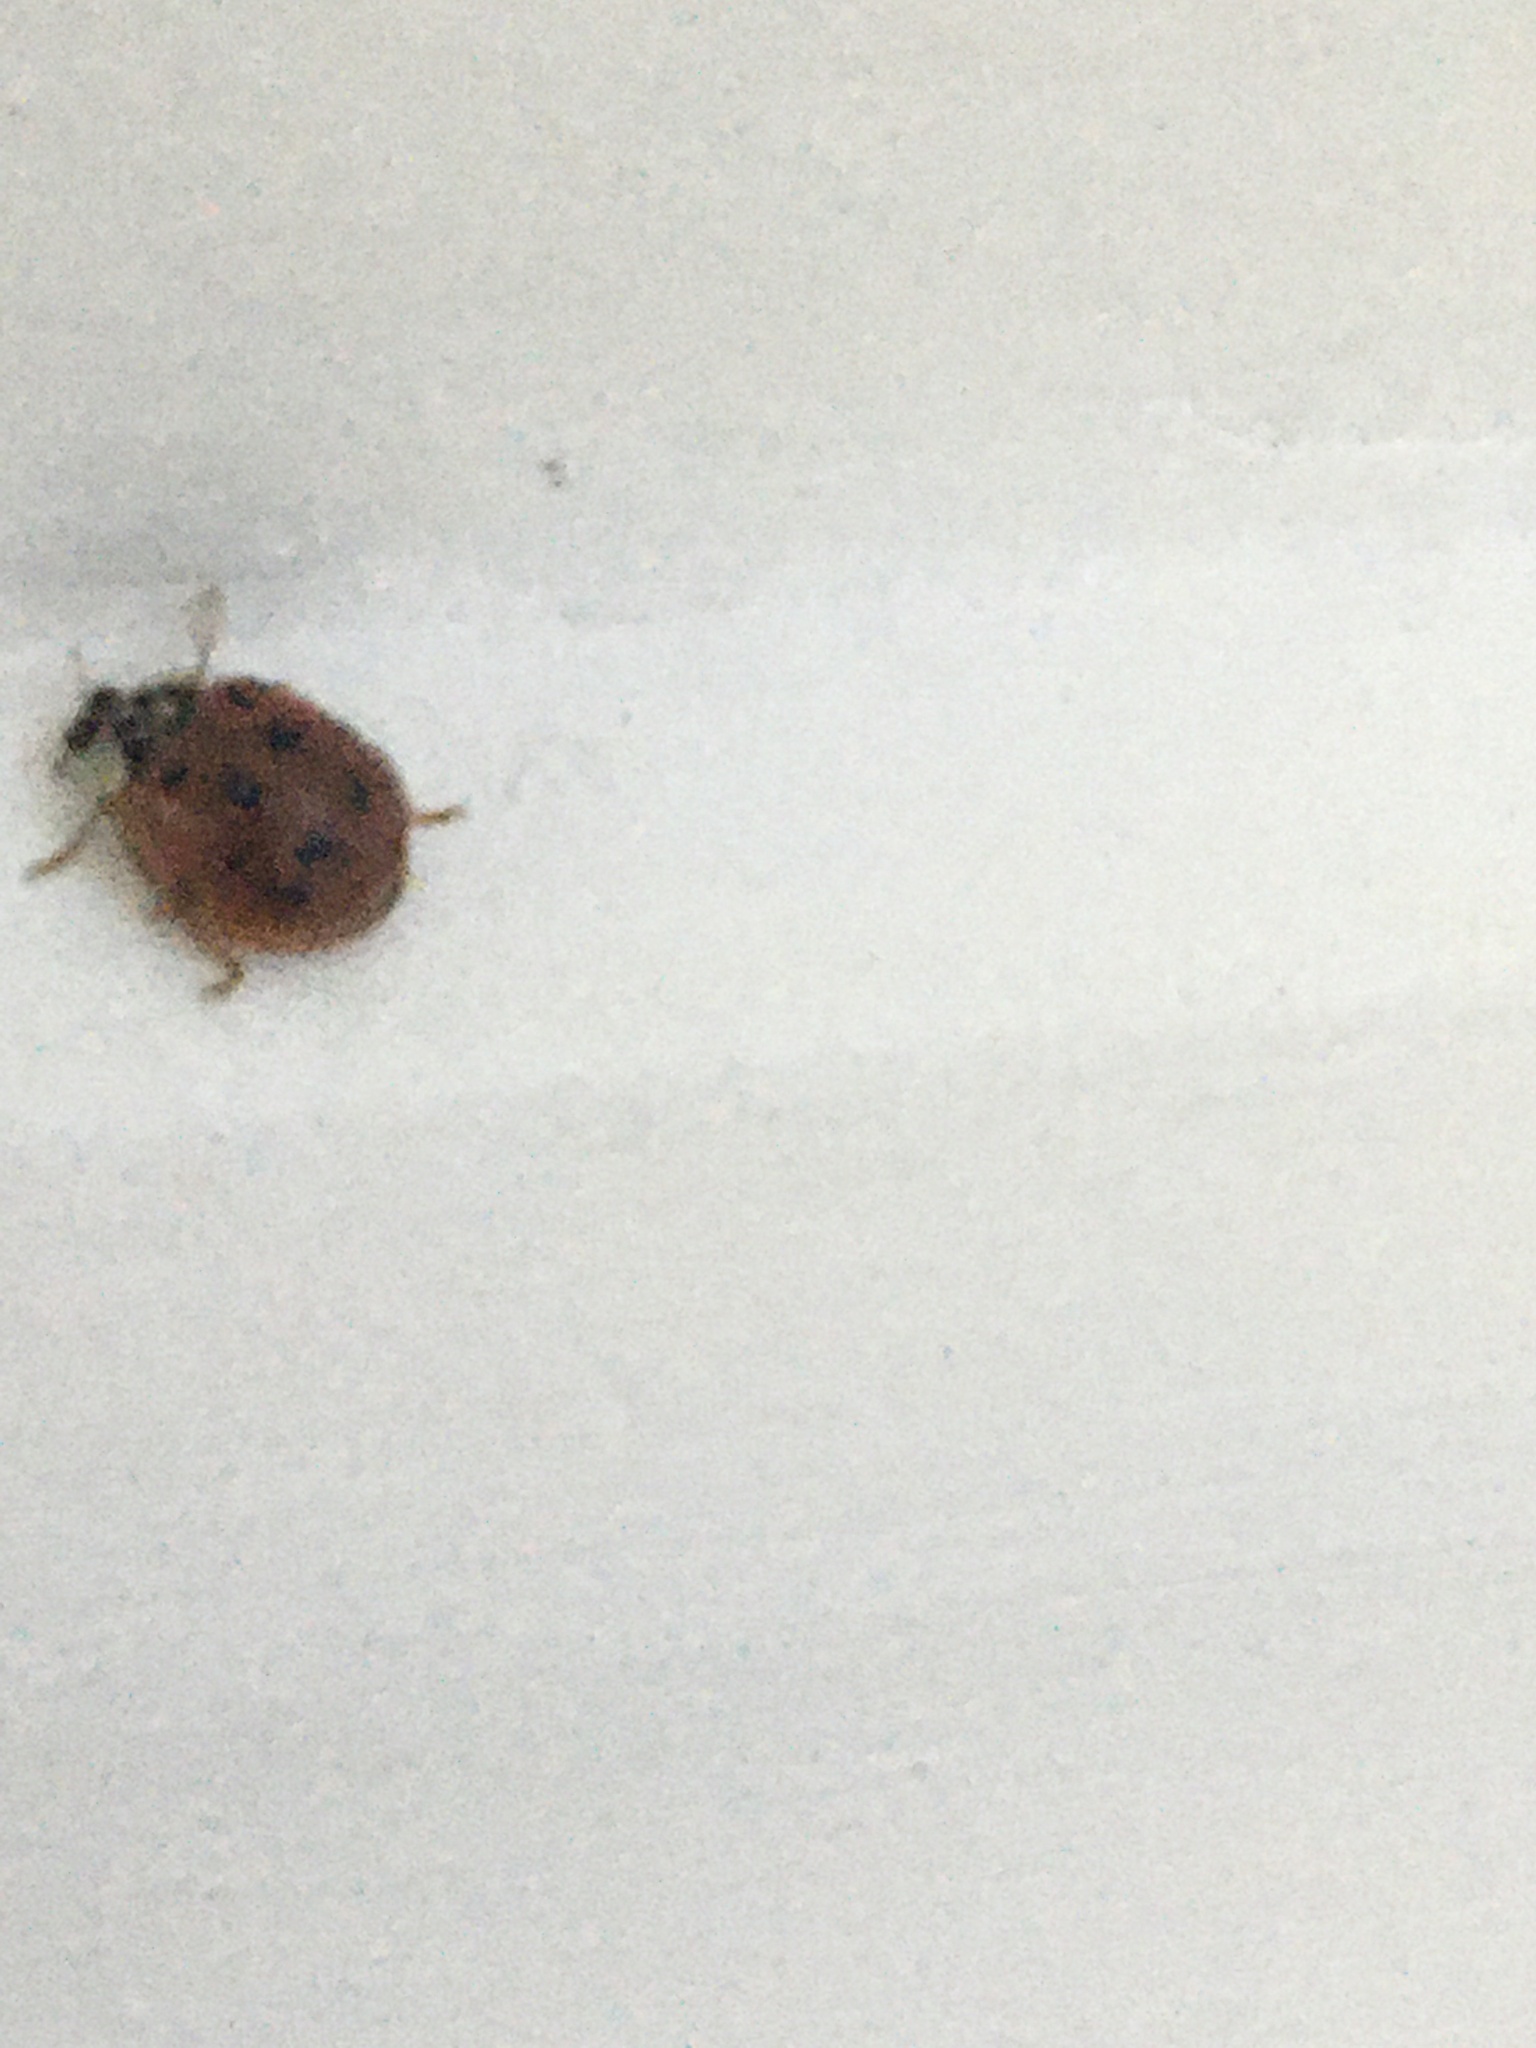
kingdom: Animalia
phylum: Arthropoda
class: Insecta
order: Coleoptera
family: Coccinellidae
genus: Harmonia
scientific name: Harmonia axyridis
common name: Harlequin ladybird
